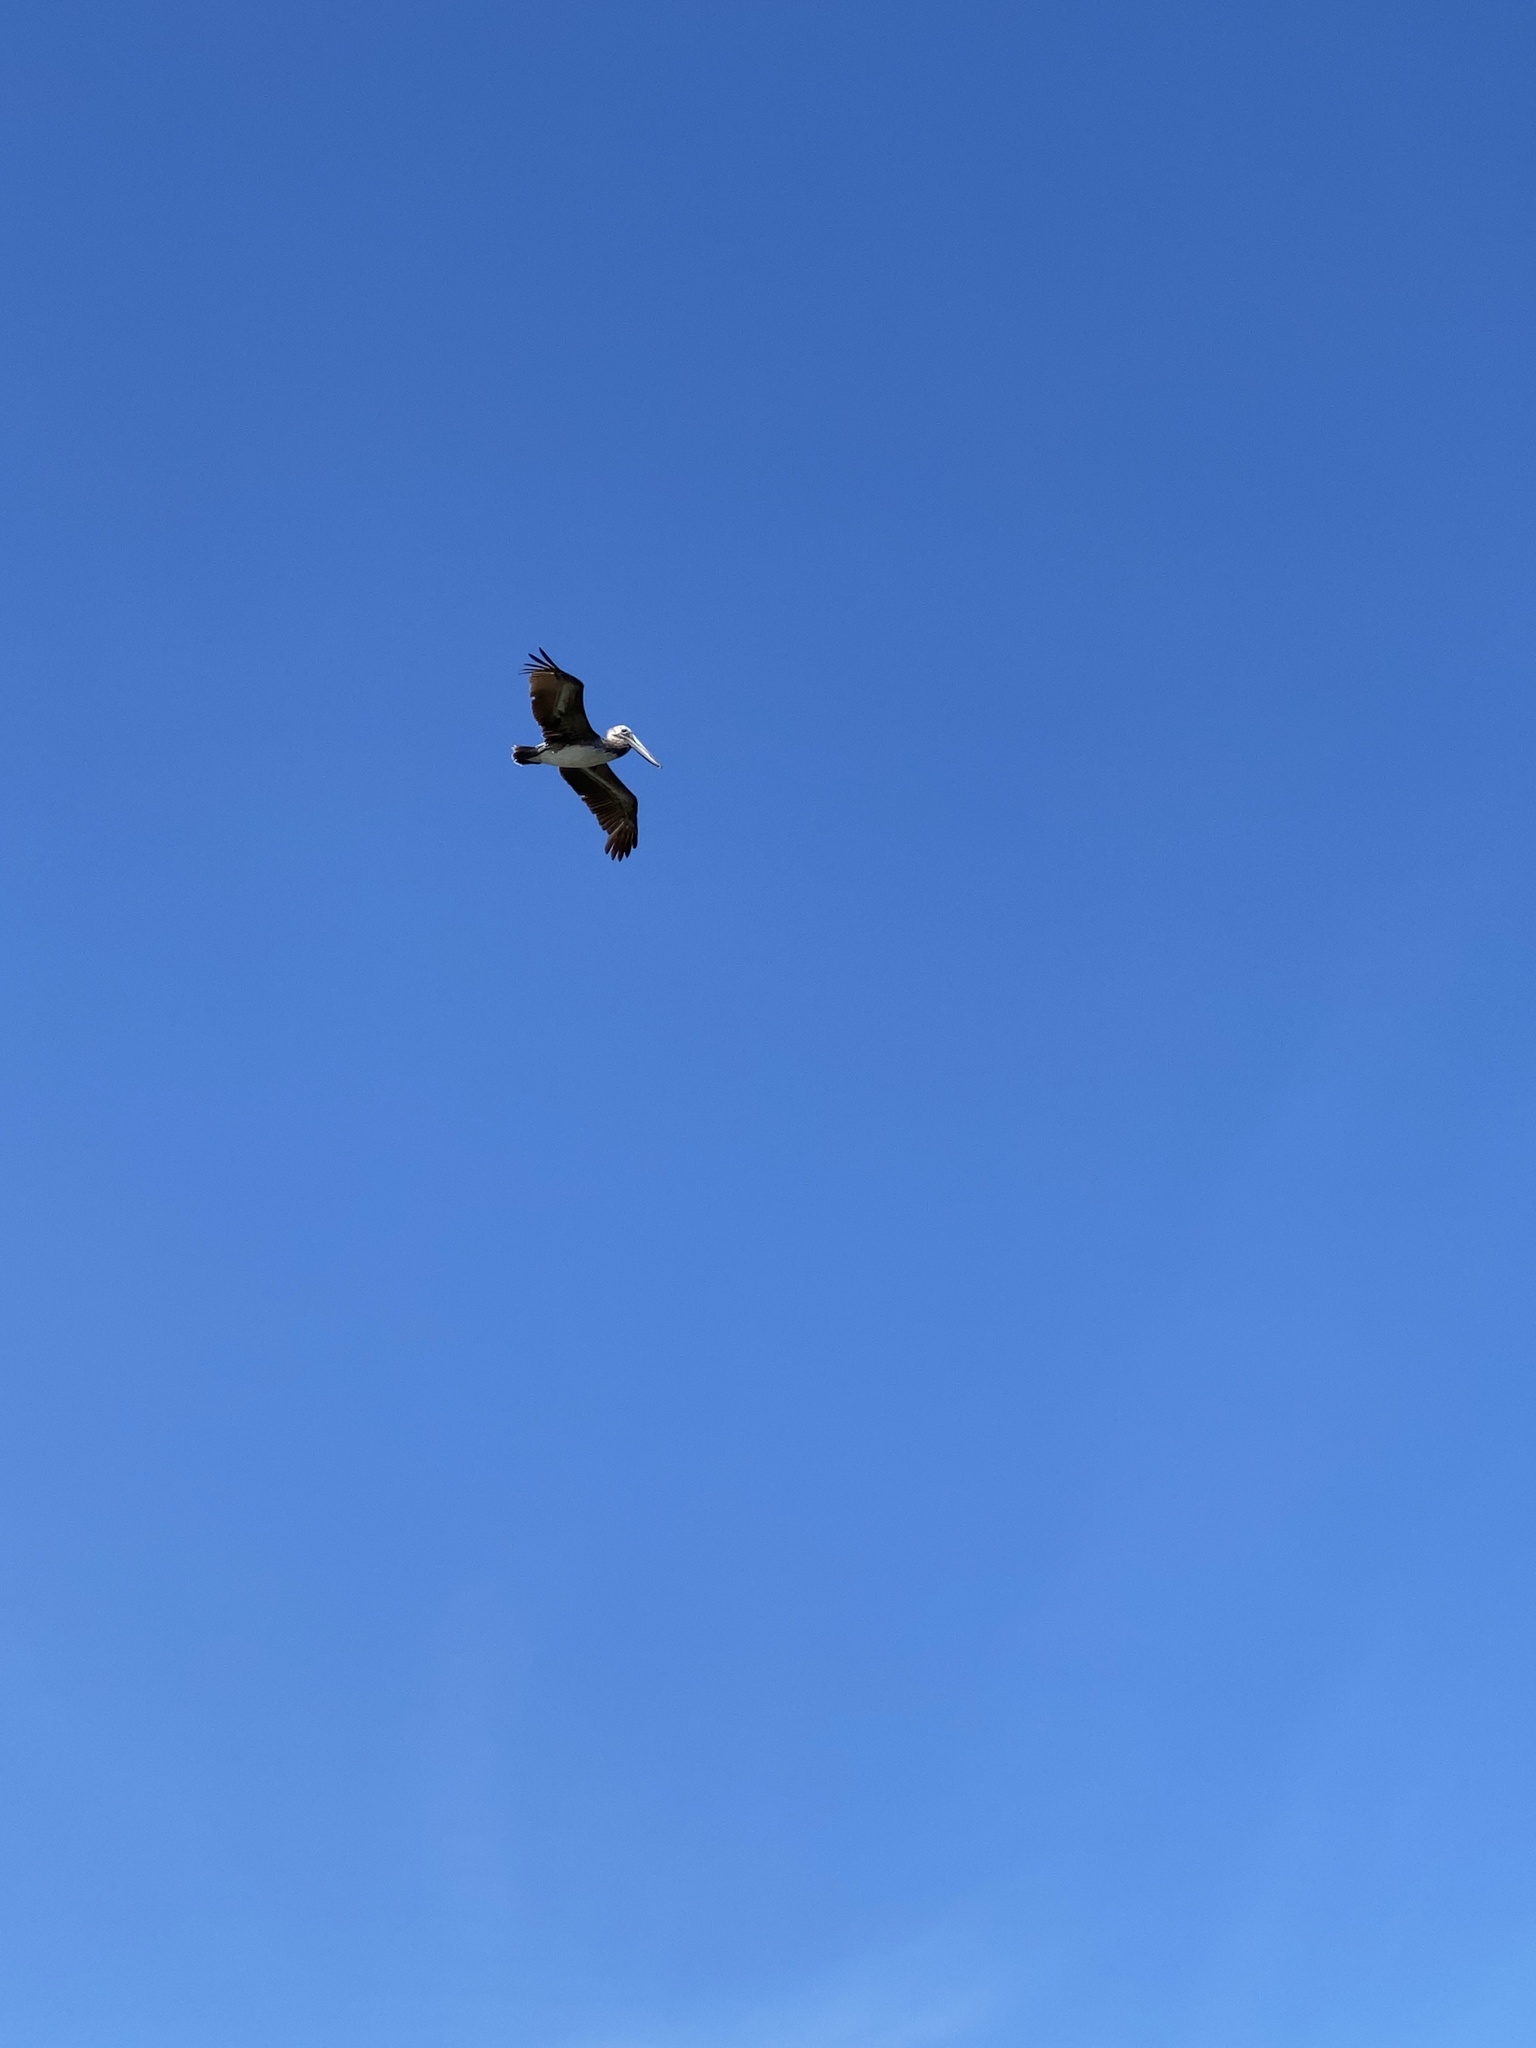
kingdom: Animalia
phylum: Chordata
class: Aves
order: Pelecaniformes
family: Pelecanidae
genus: Pelecanus
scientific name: Pelecanus occidentalis
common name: Brown pelican
